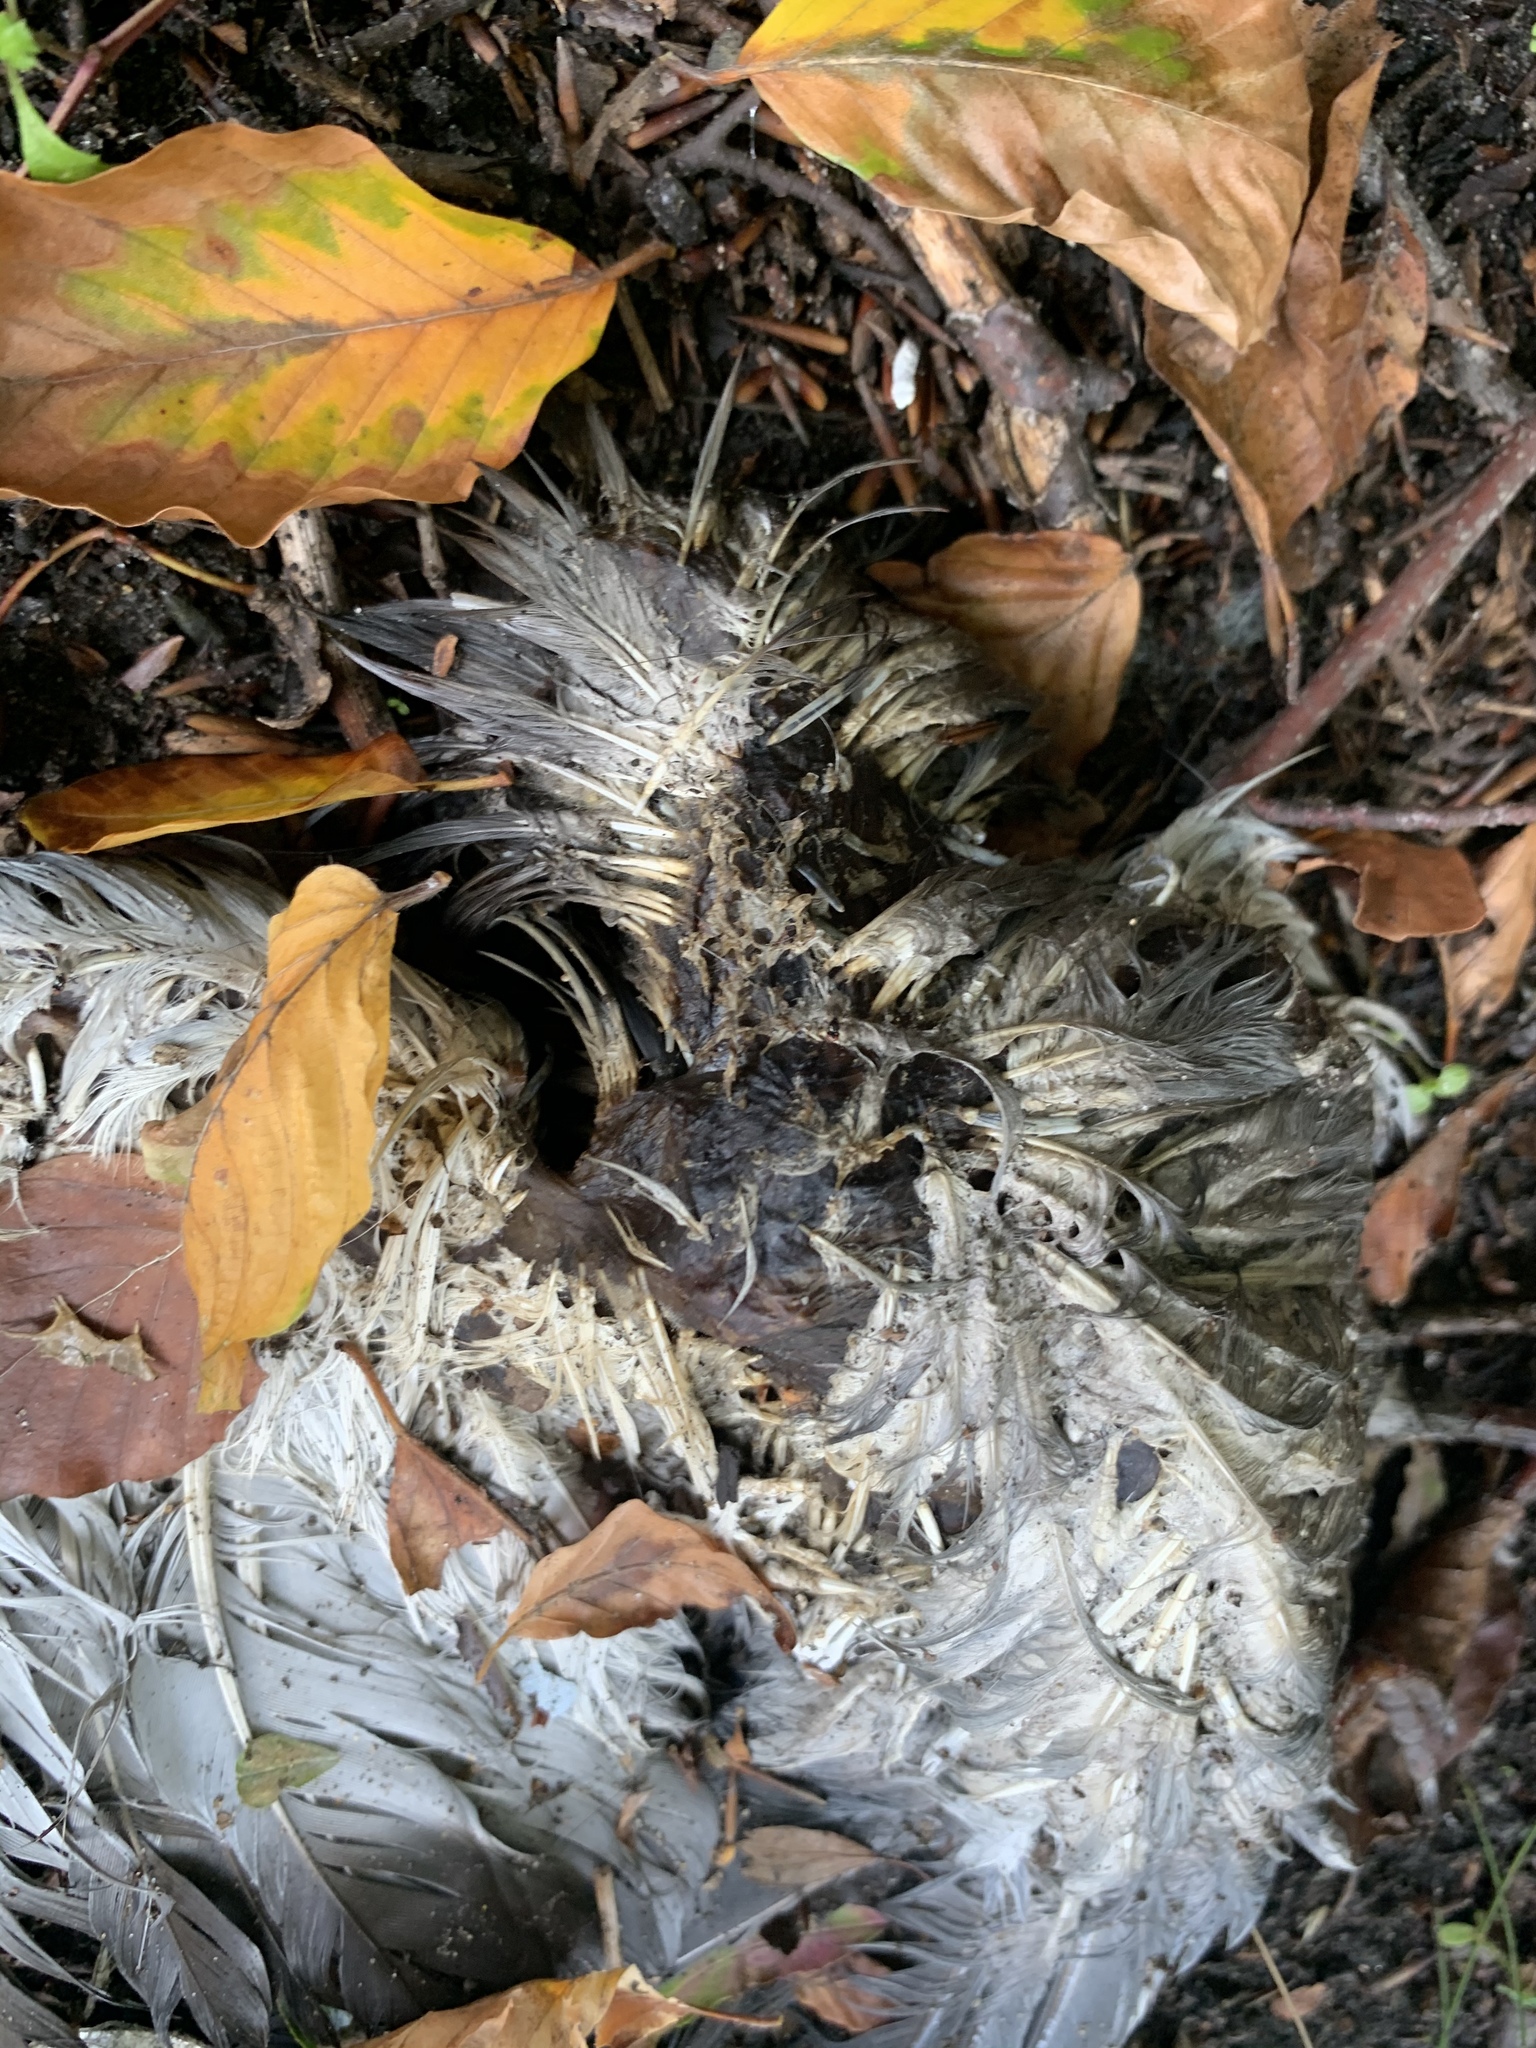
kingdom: Animalia
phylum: Chordata
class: Aves
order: Columbiformes
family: Columbidae
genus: Columba
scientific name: Columba palumbus
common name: Common wood pigeon
